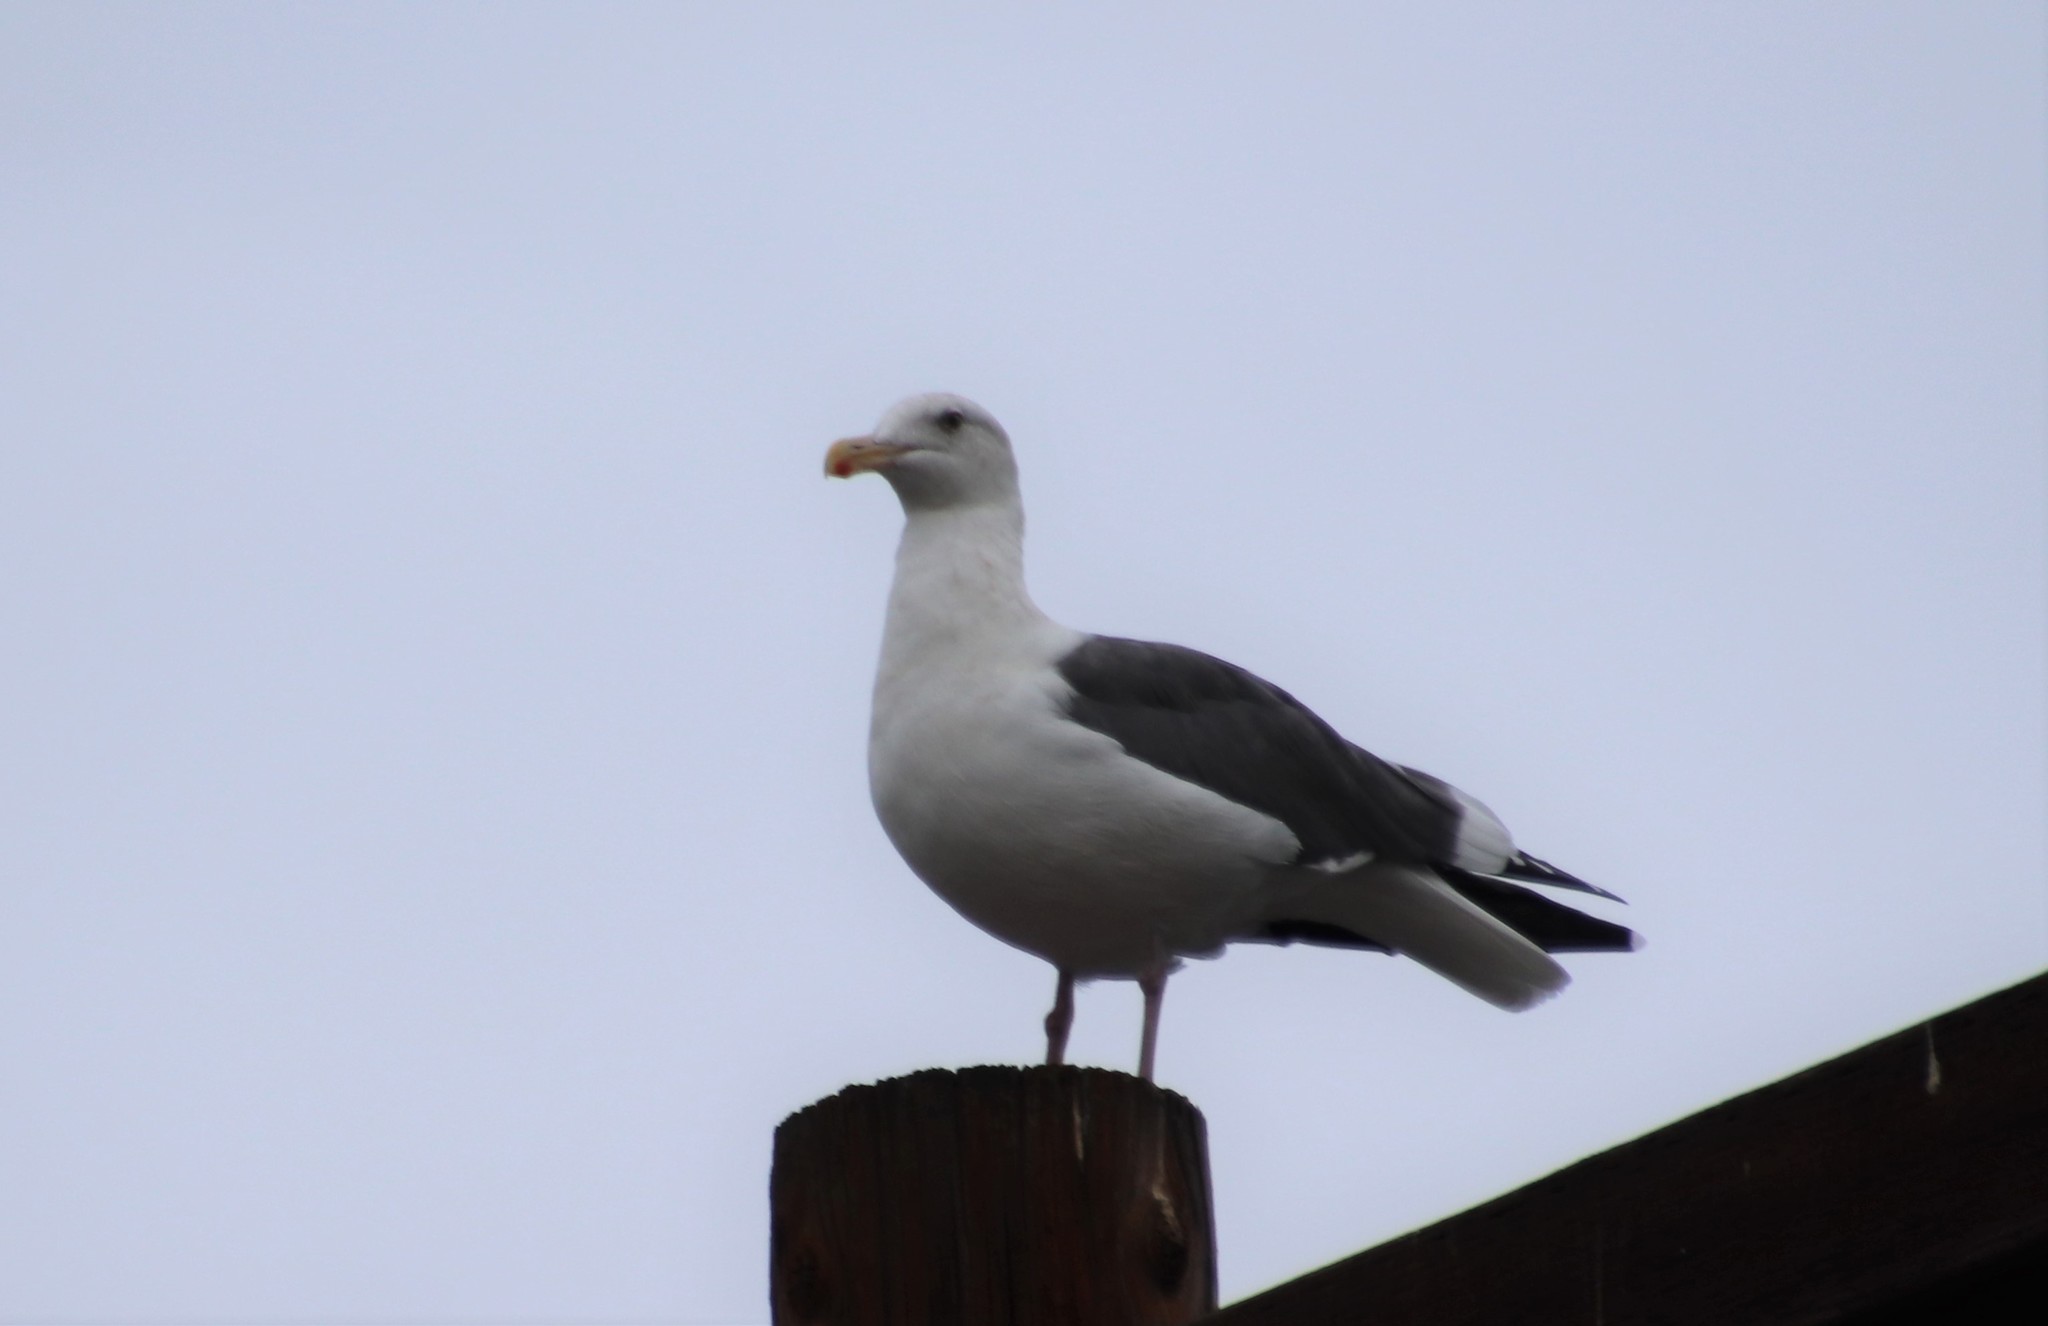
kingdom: Animalia
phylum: Chordata
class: Aves
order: Charadriiformes
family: Laridae
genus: Larus
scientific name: Larus occidentalis
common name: Western gull
